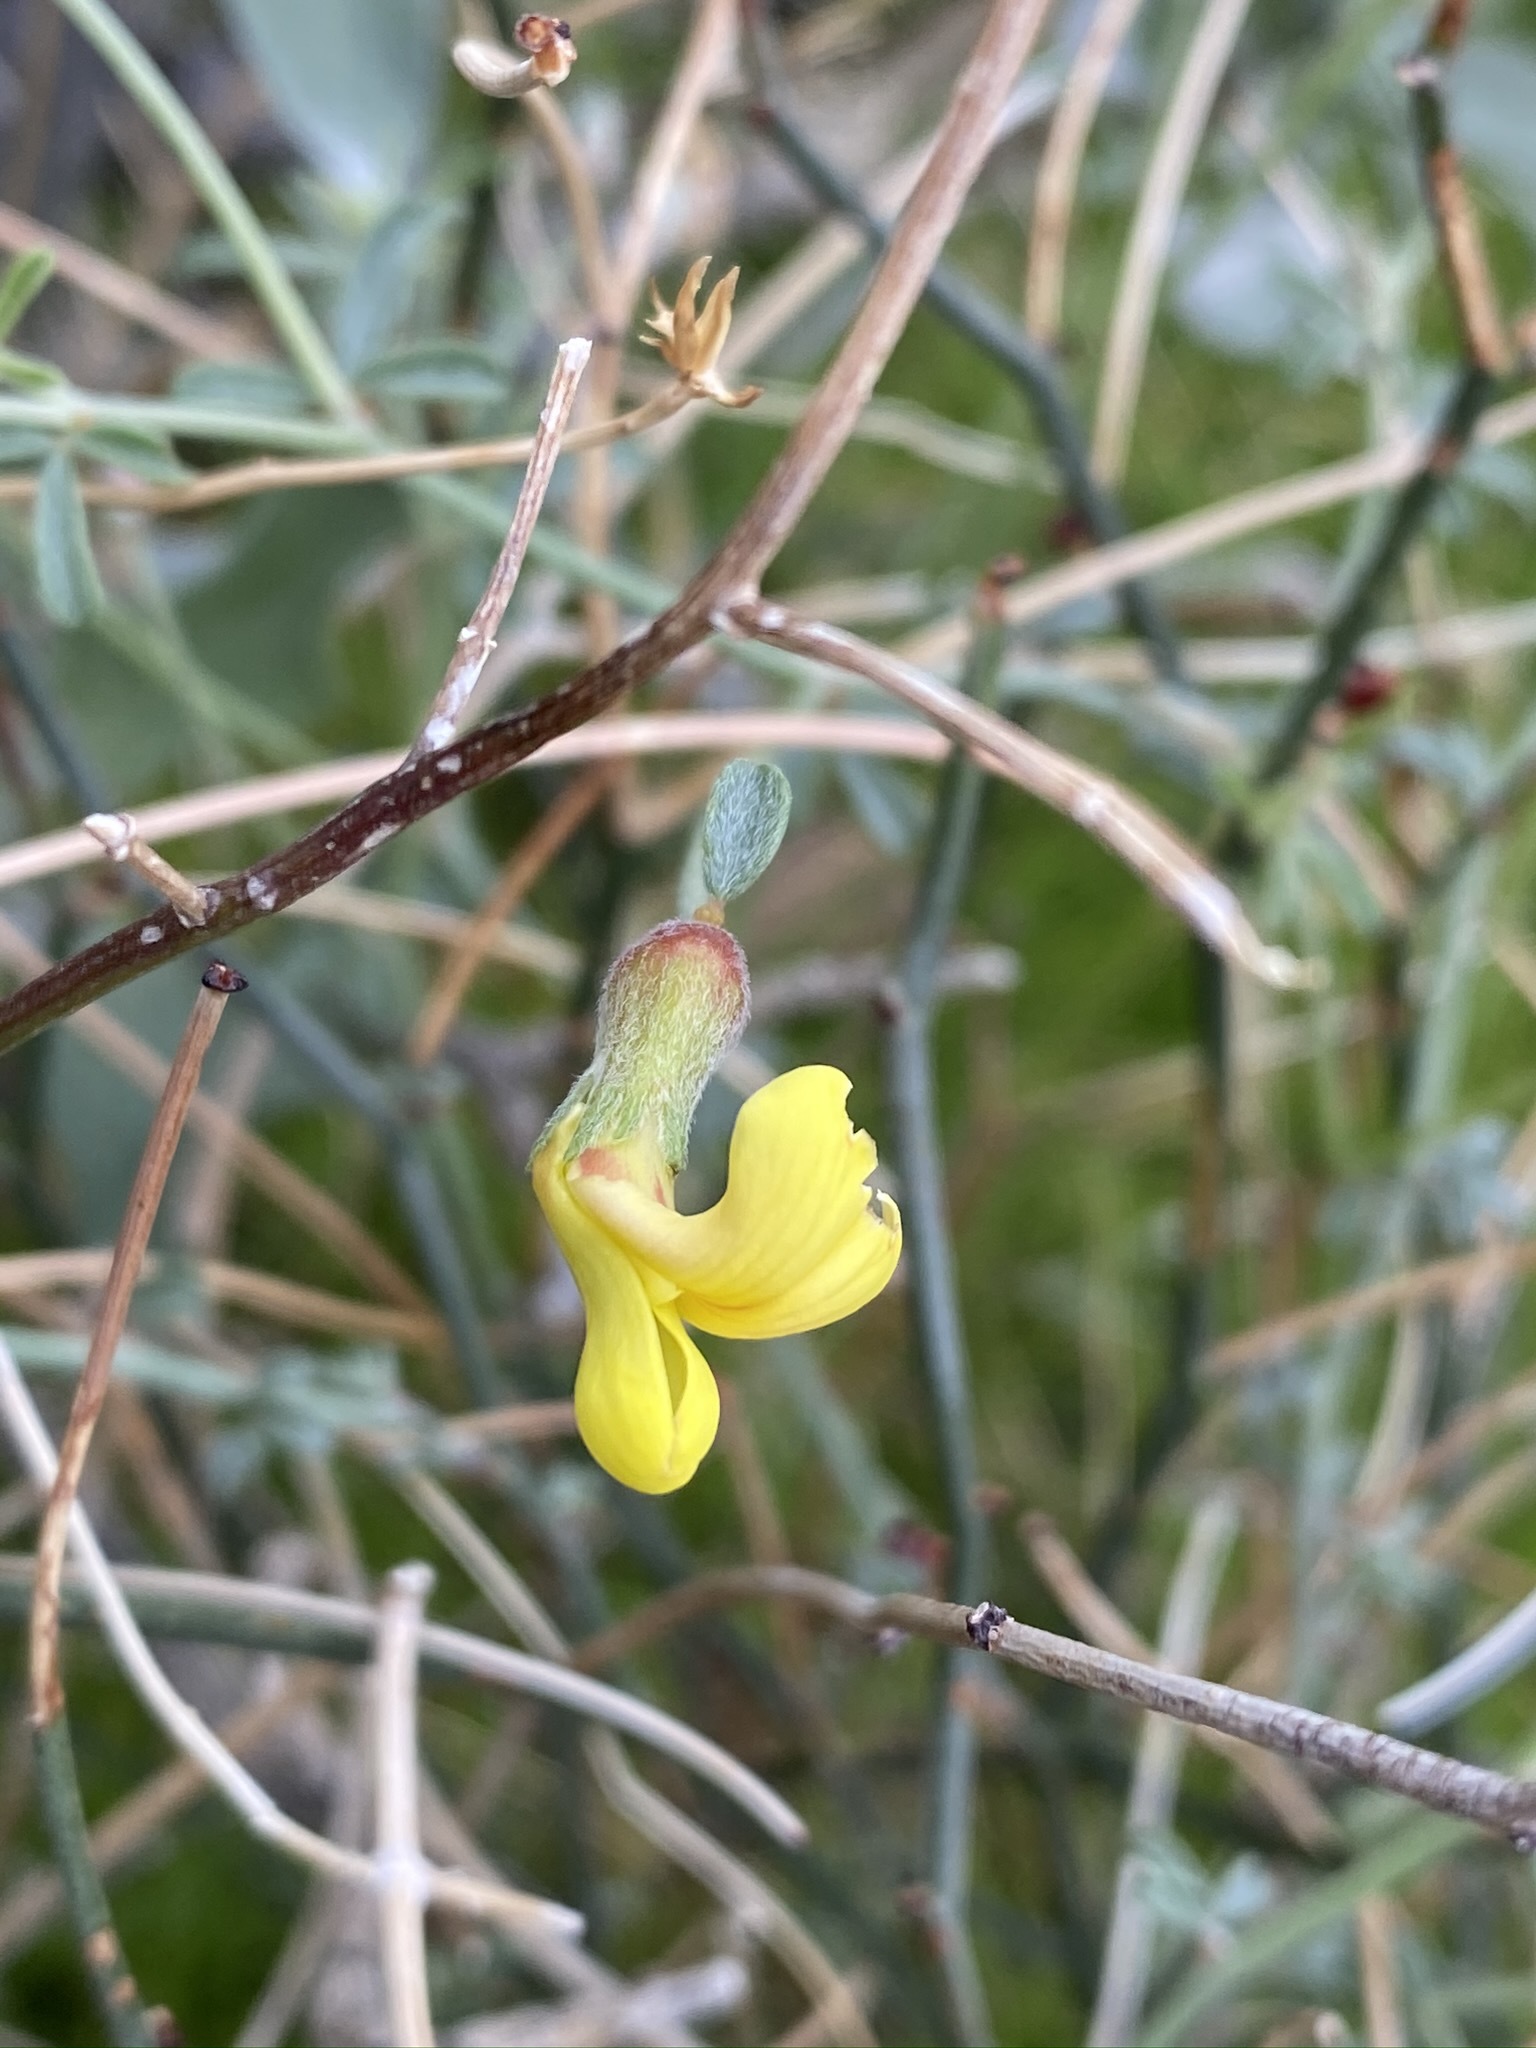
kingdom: Plantae
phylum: Tracheophyta
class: Magnoliopsida
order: Fabales
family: Fabaceae
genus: Acmispon
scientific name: Acmispon rigidus
